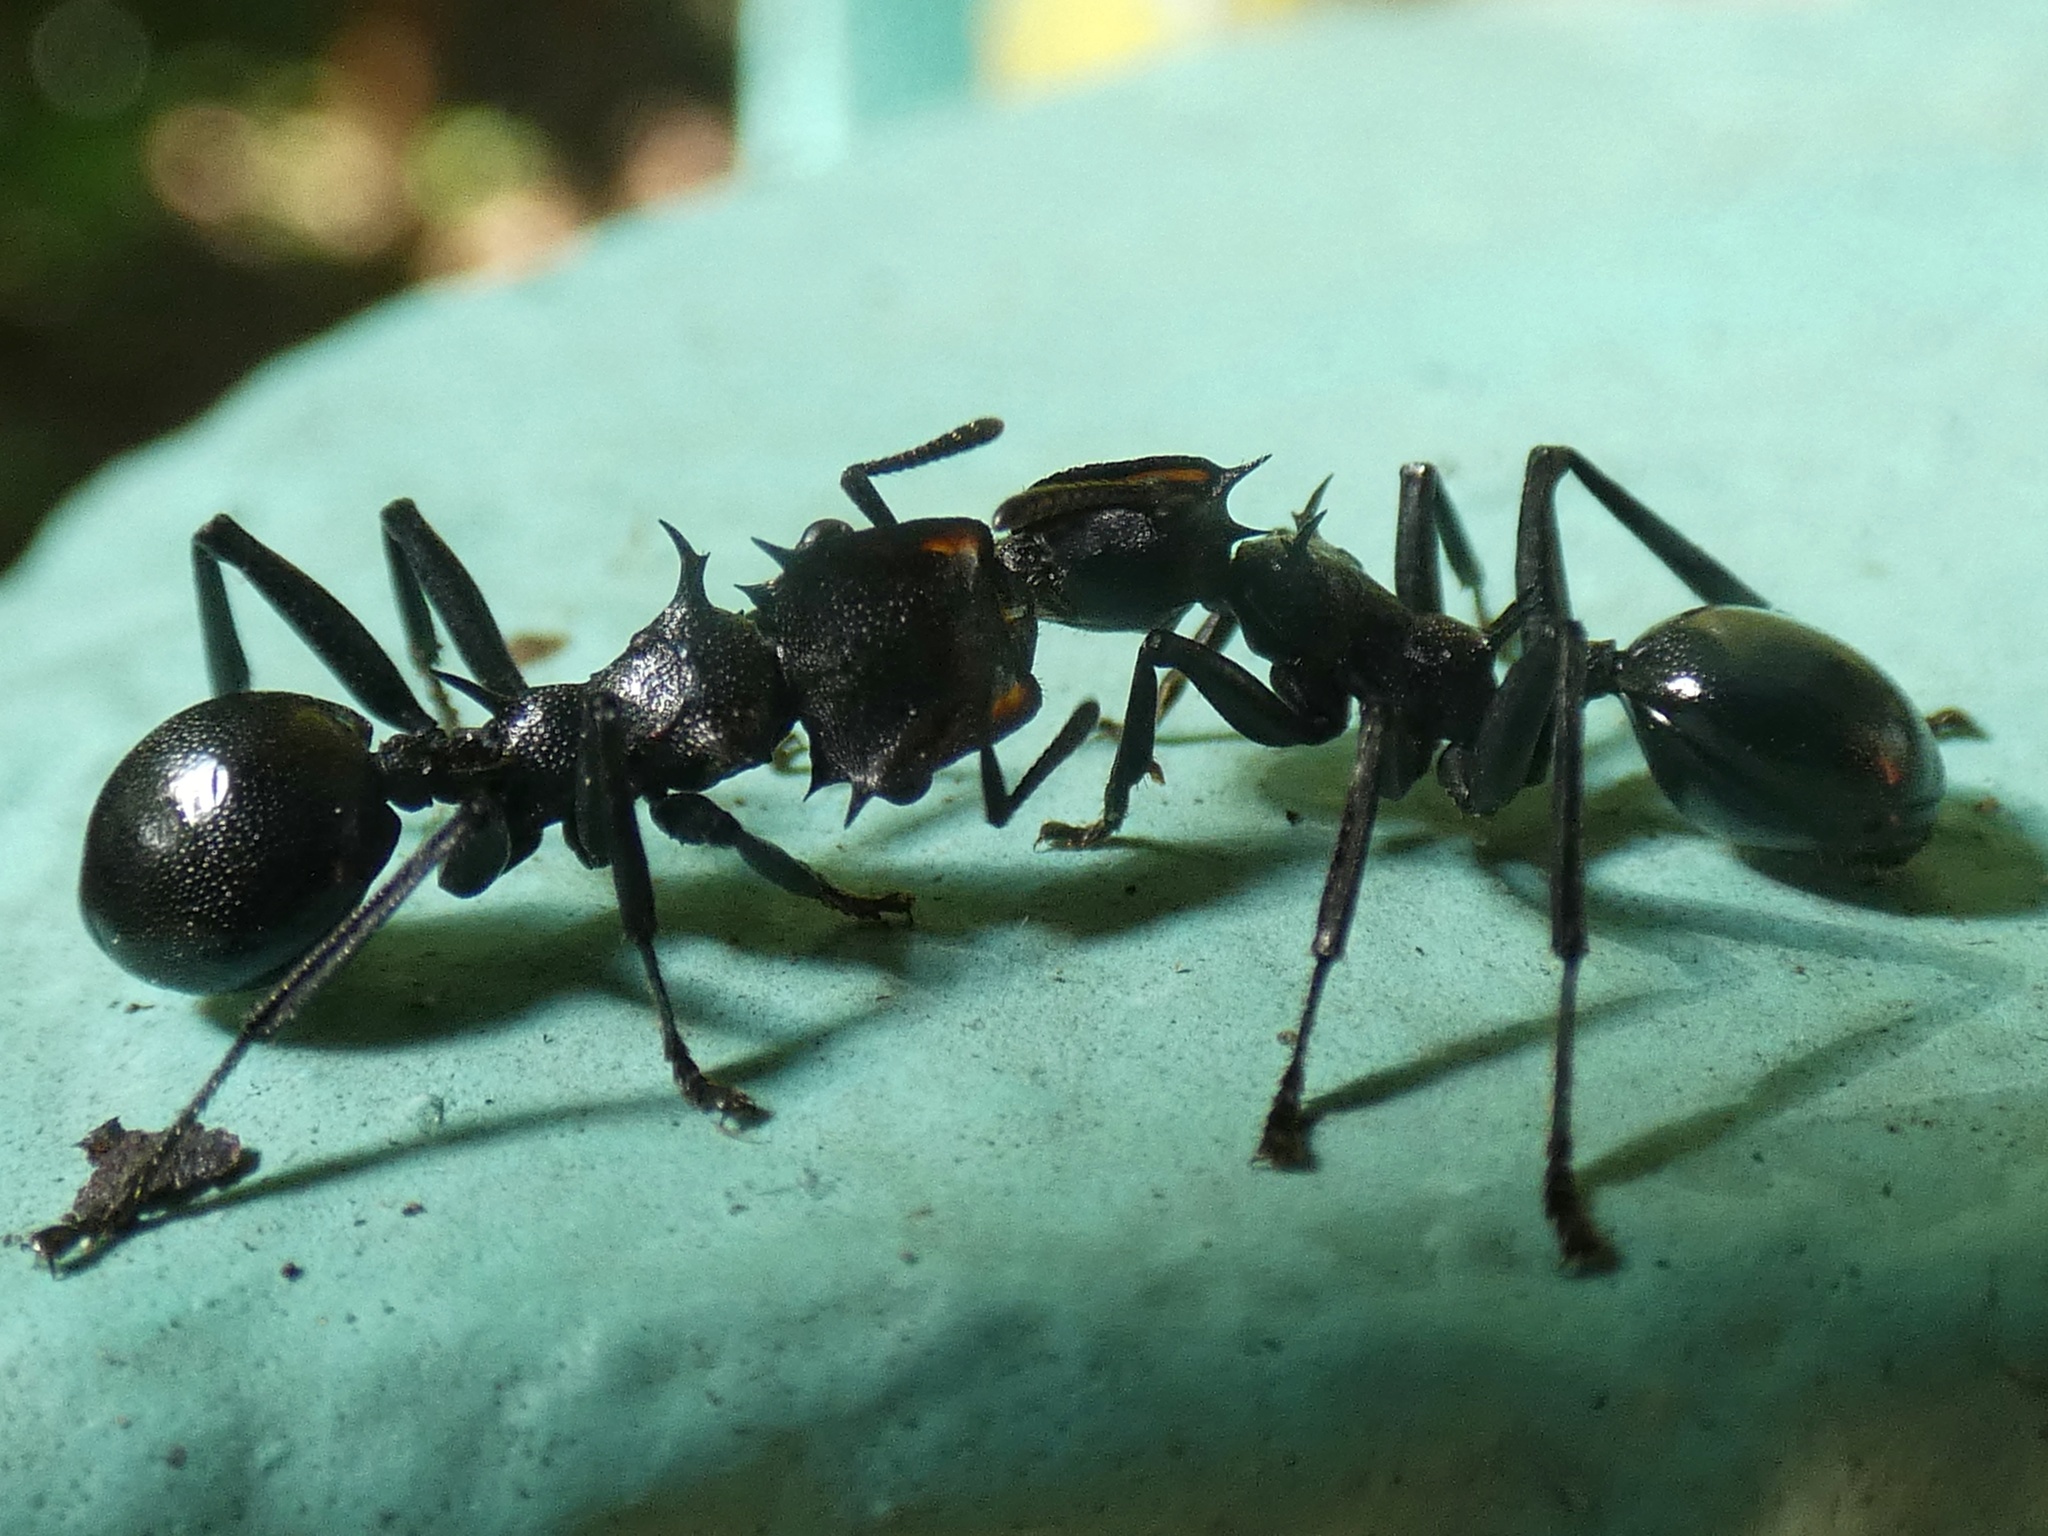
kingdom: Animalia
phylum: Arthropoda
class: Insecta
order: Hymenoptera
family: Formicidae
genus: Cephalotes
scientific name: Cephalotes atratus
